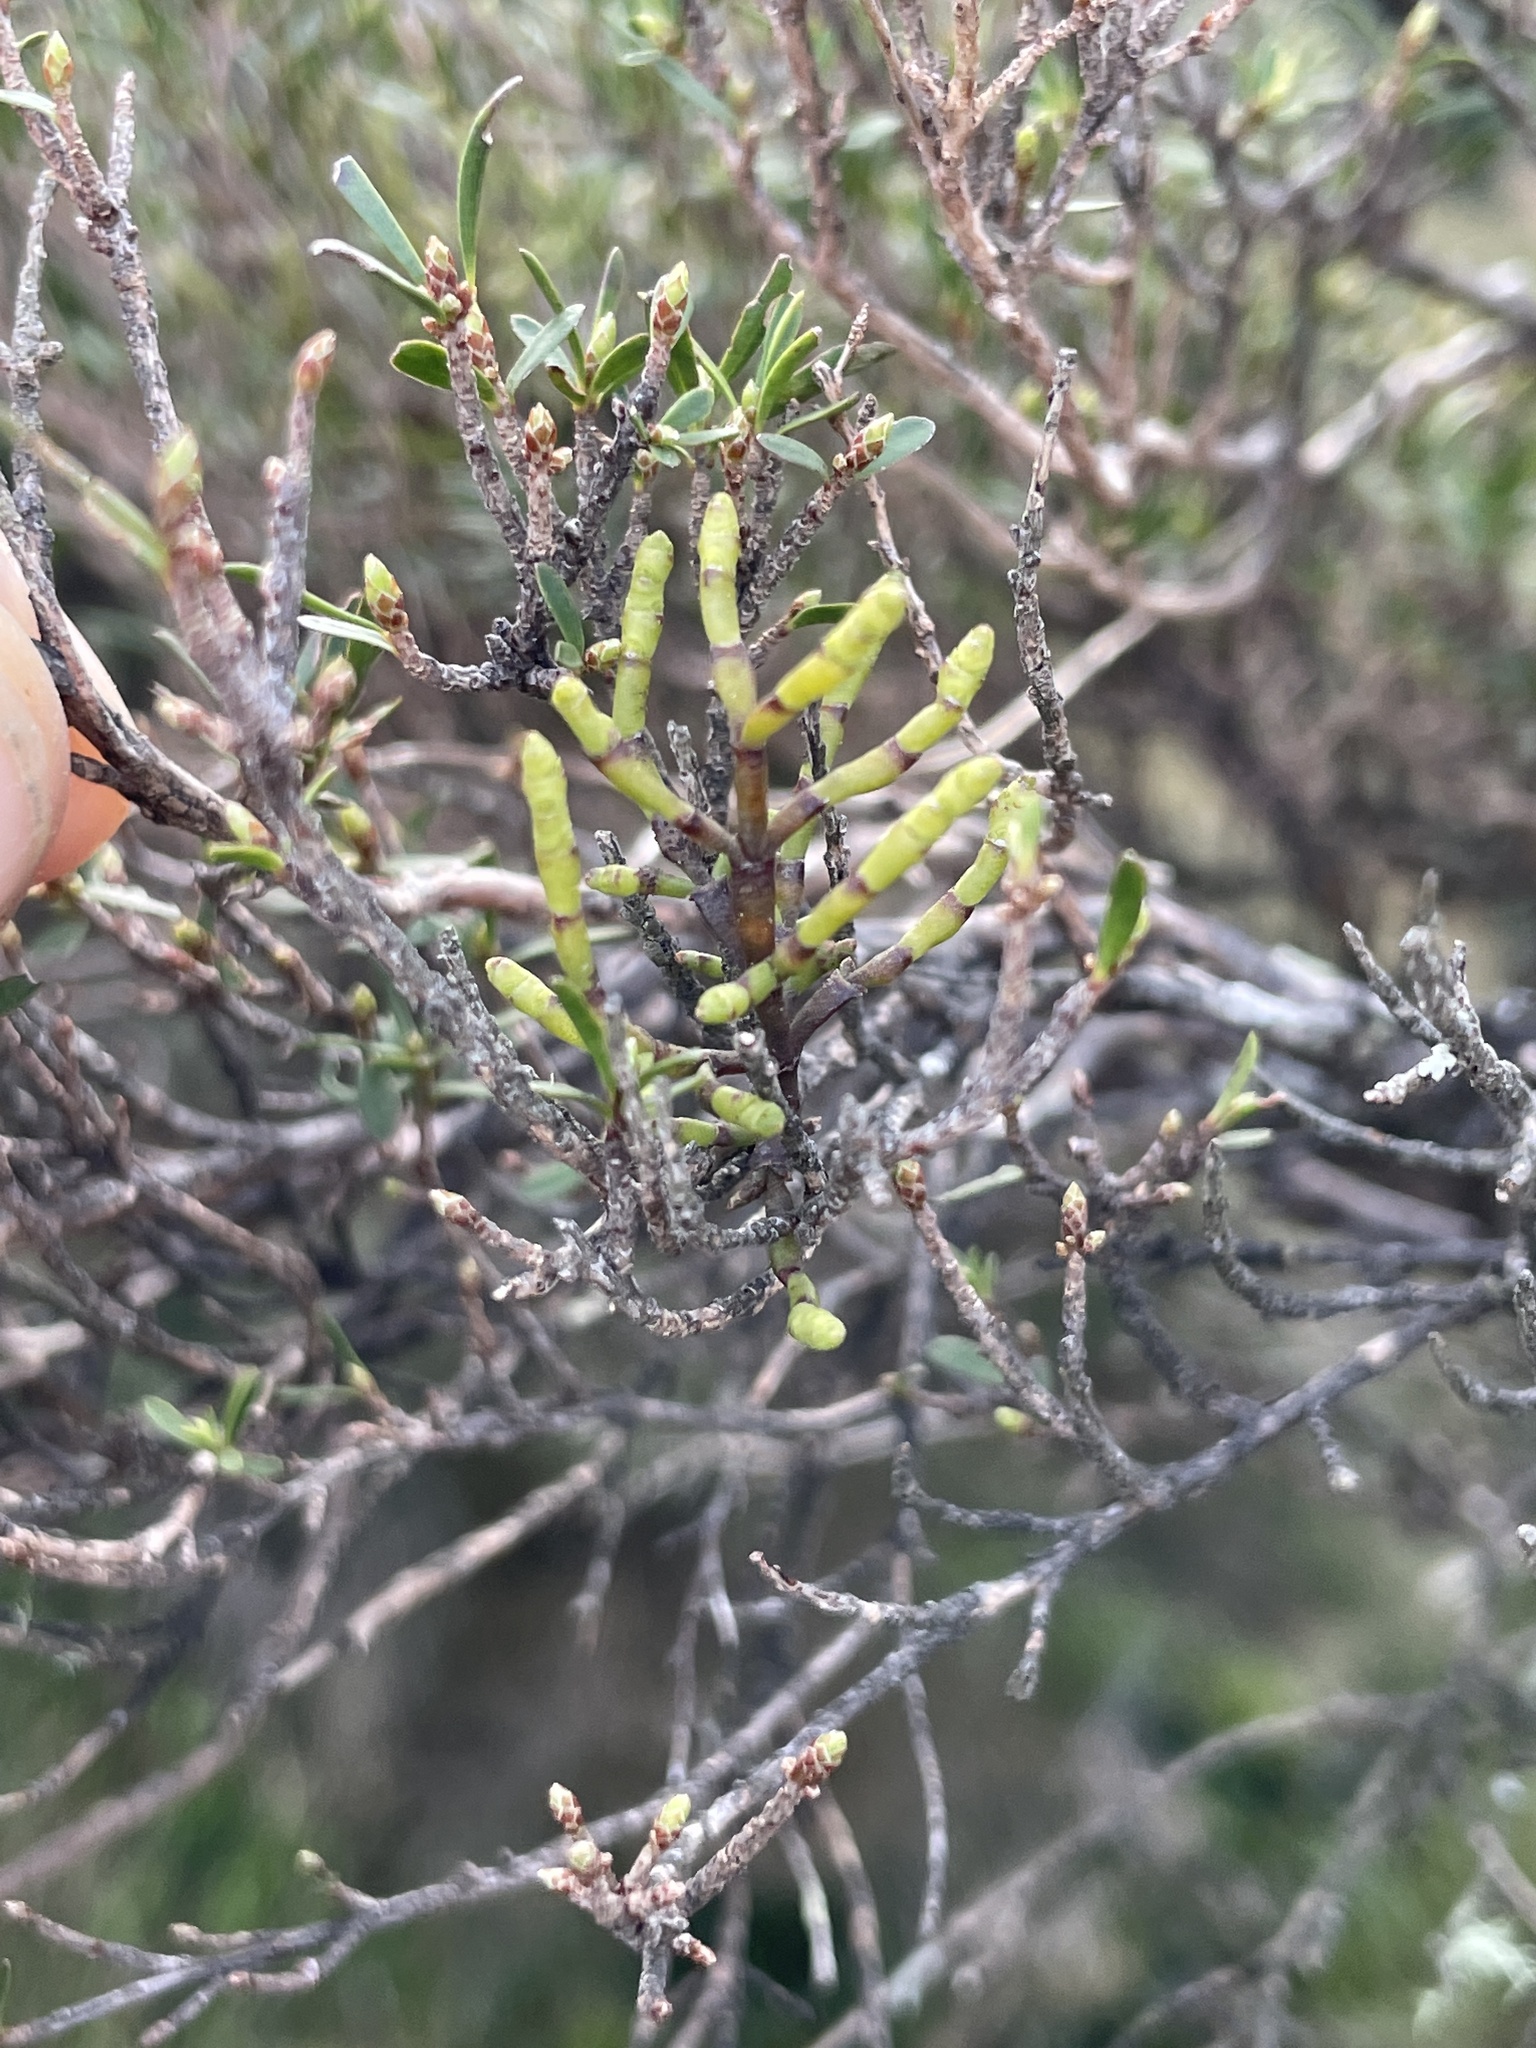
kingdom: Plantae
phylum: Tracheophyta
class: Magnoliopsida
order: Santalales
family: Viscaceae
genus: Korthalsella
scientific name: Korthalsella salicornioides
